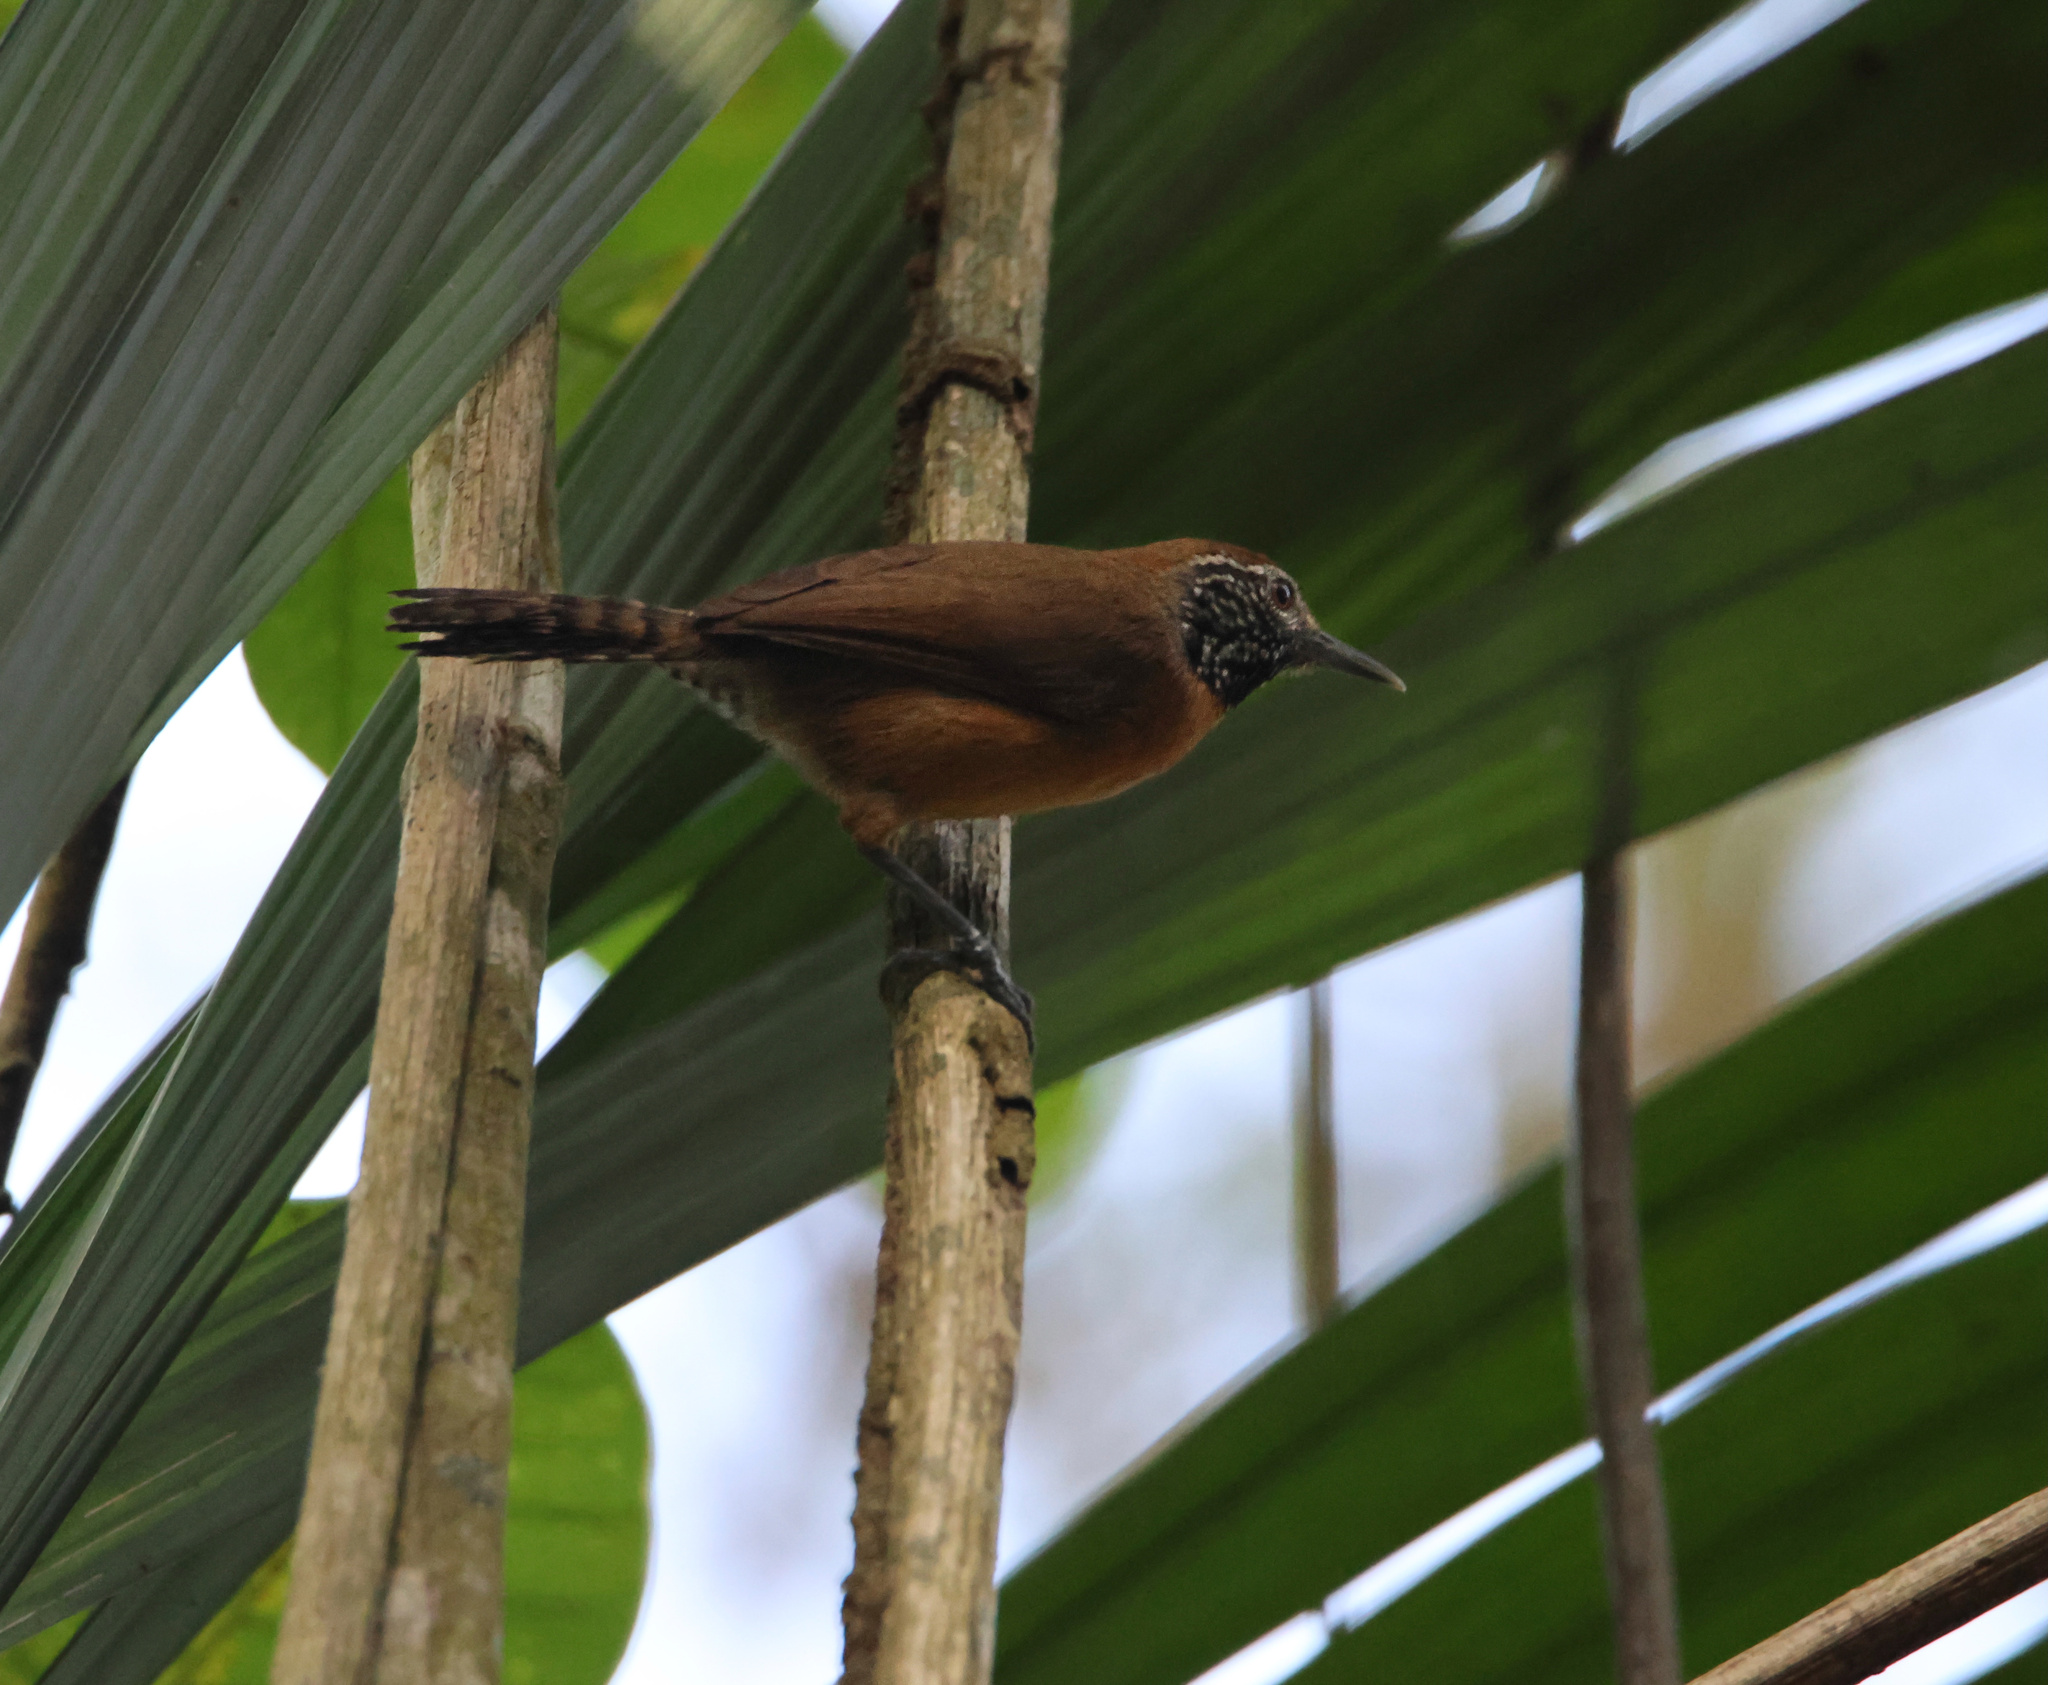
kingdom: Animalia
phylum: Chordata
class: Aves
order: Passeriformes
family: Troglodytidae
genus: Pheugopedius
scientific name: Pheugopedius rutilus
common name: Rufous-breasted wren
